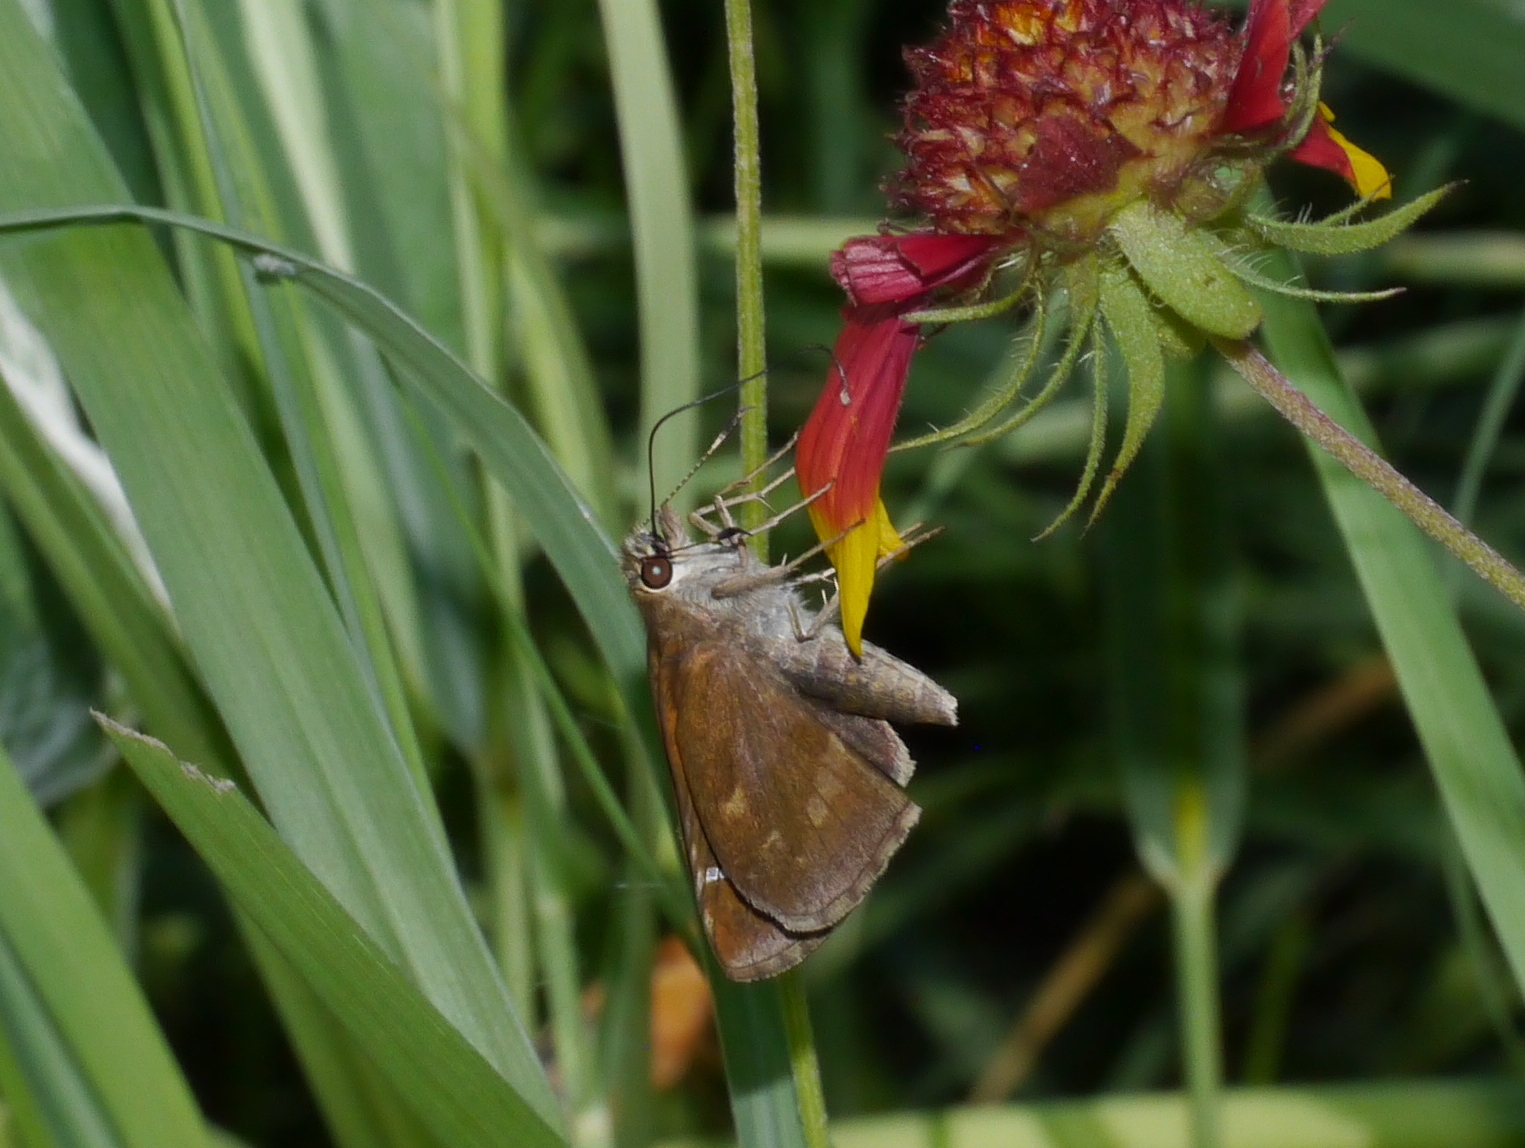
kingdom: Animalia
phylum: Arthropoda
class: Insecta
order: Lepidoptera
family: Hesperiidae
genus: Lerema
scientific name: Lerema accius
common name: Clouded skipper
